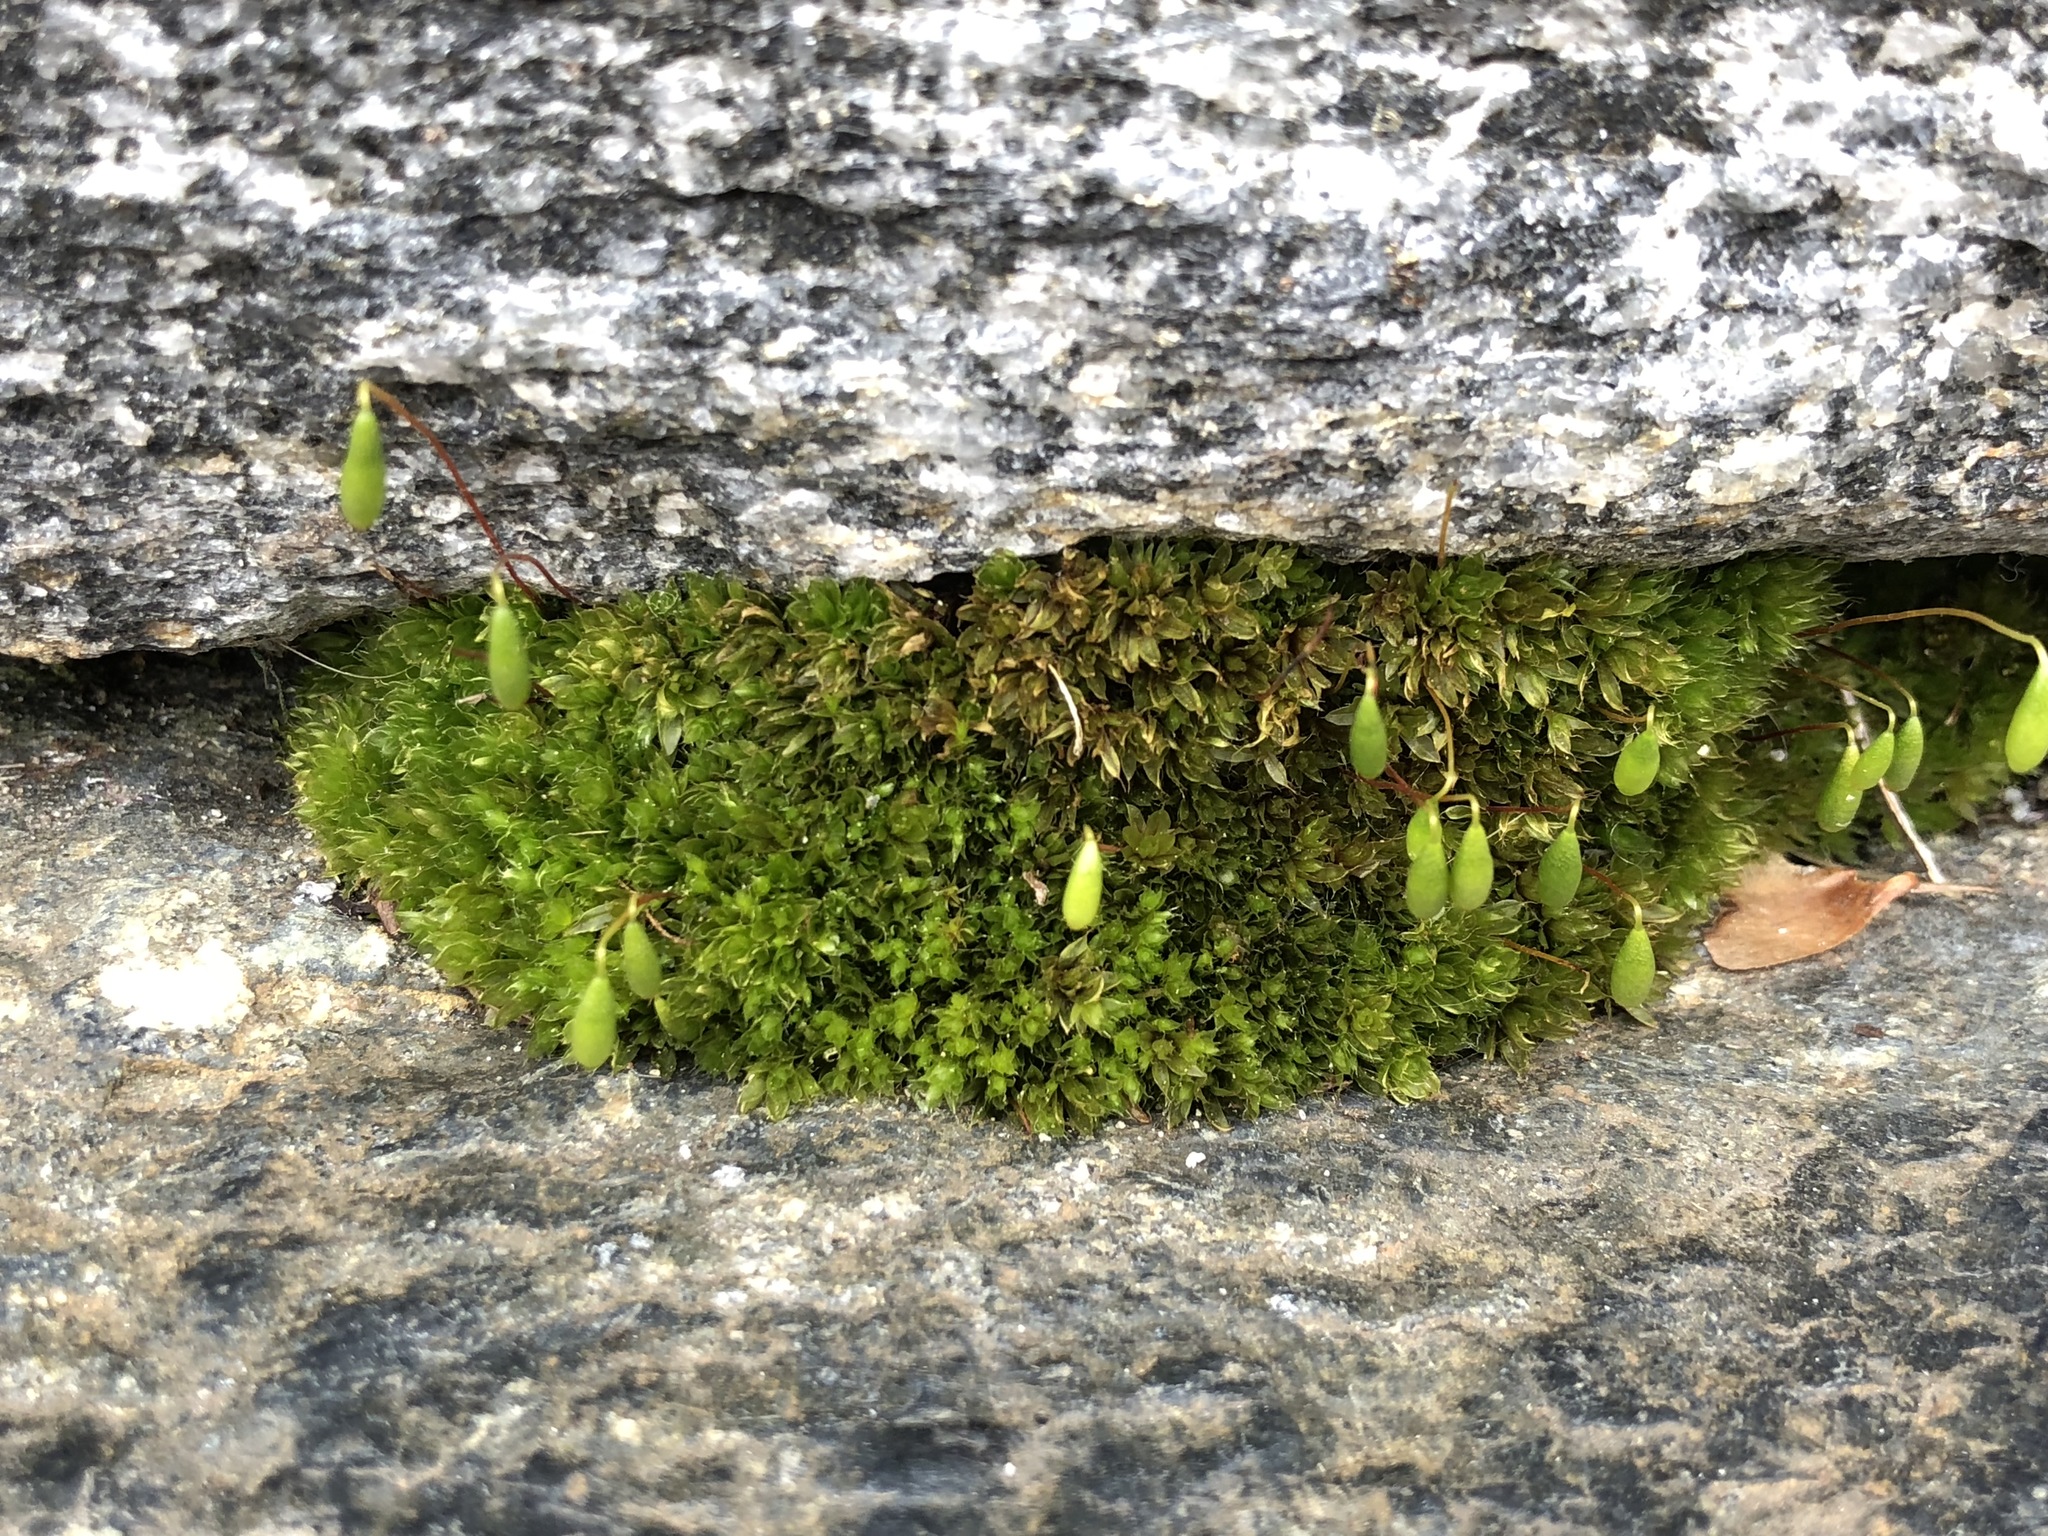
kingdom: Plantae
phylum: Bryophyta
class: Bryopsida
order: Bryales
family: Bryaceae
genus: Rosulabryum
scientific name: Rosulabryum capillare
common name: Capillary thread-moss
